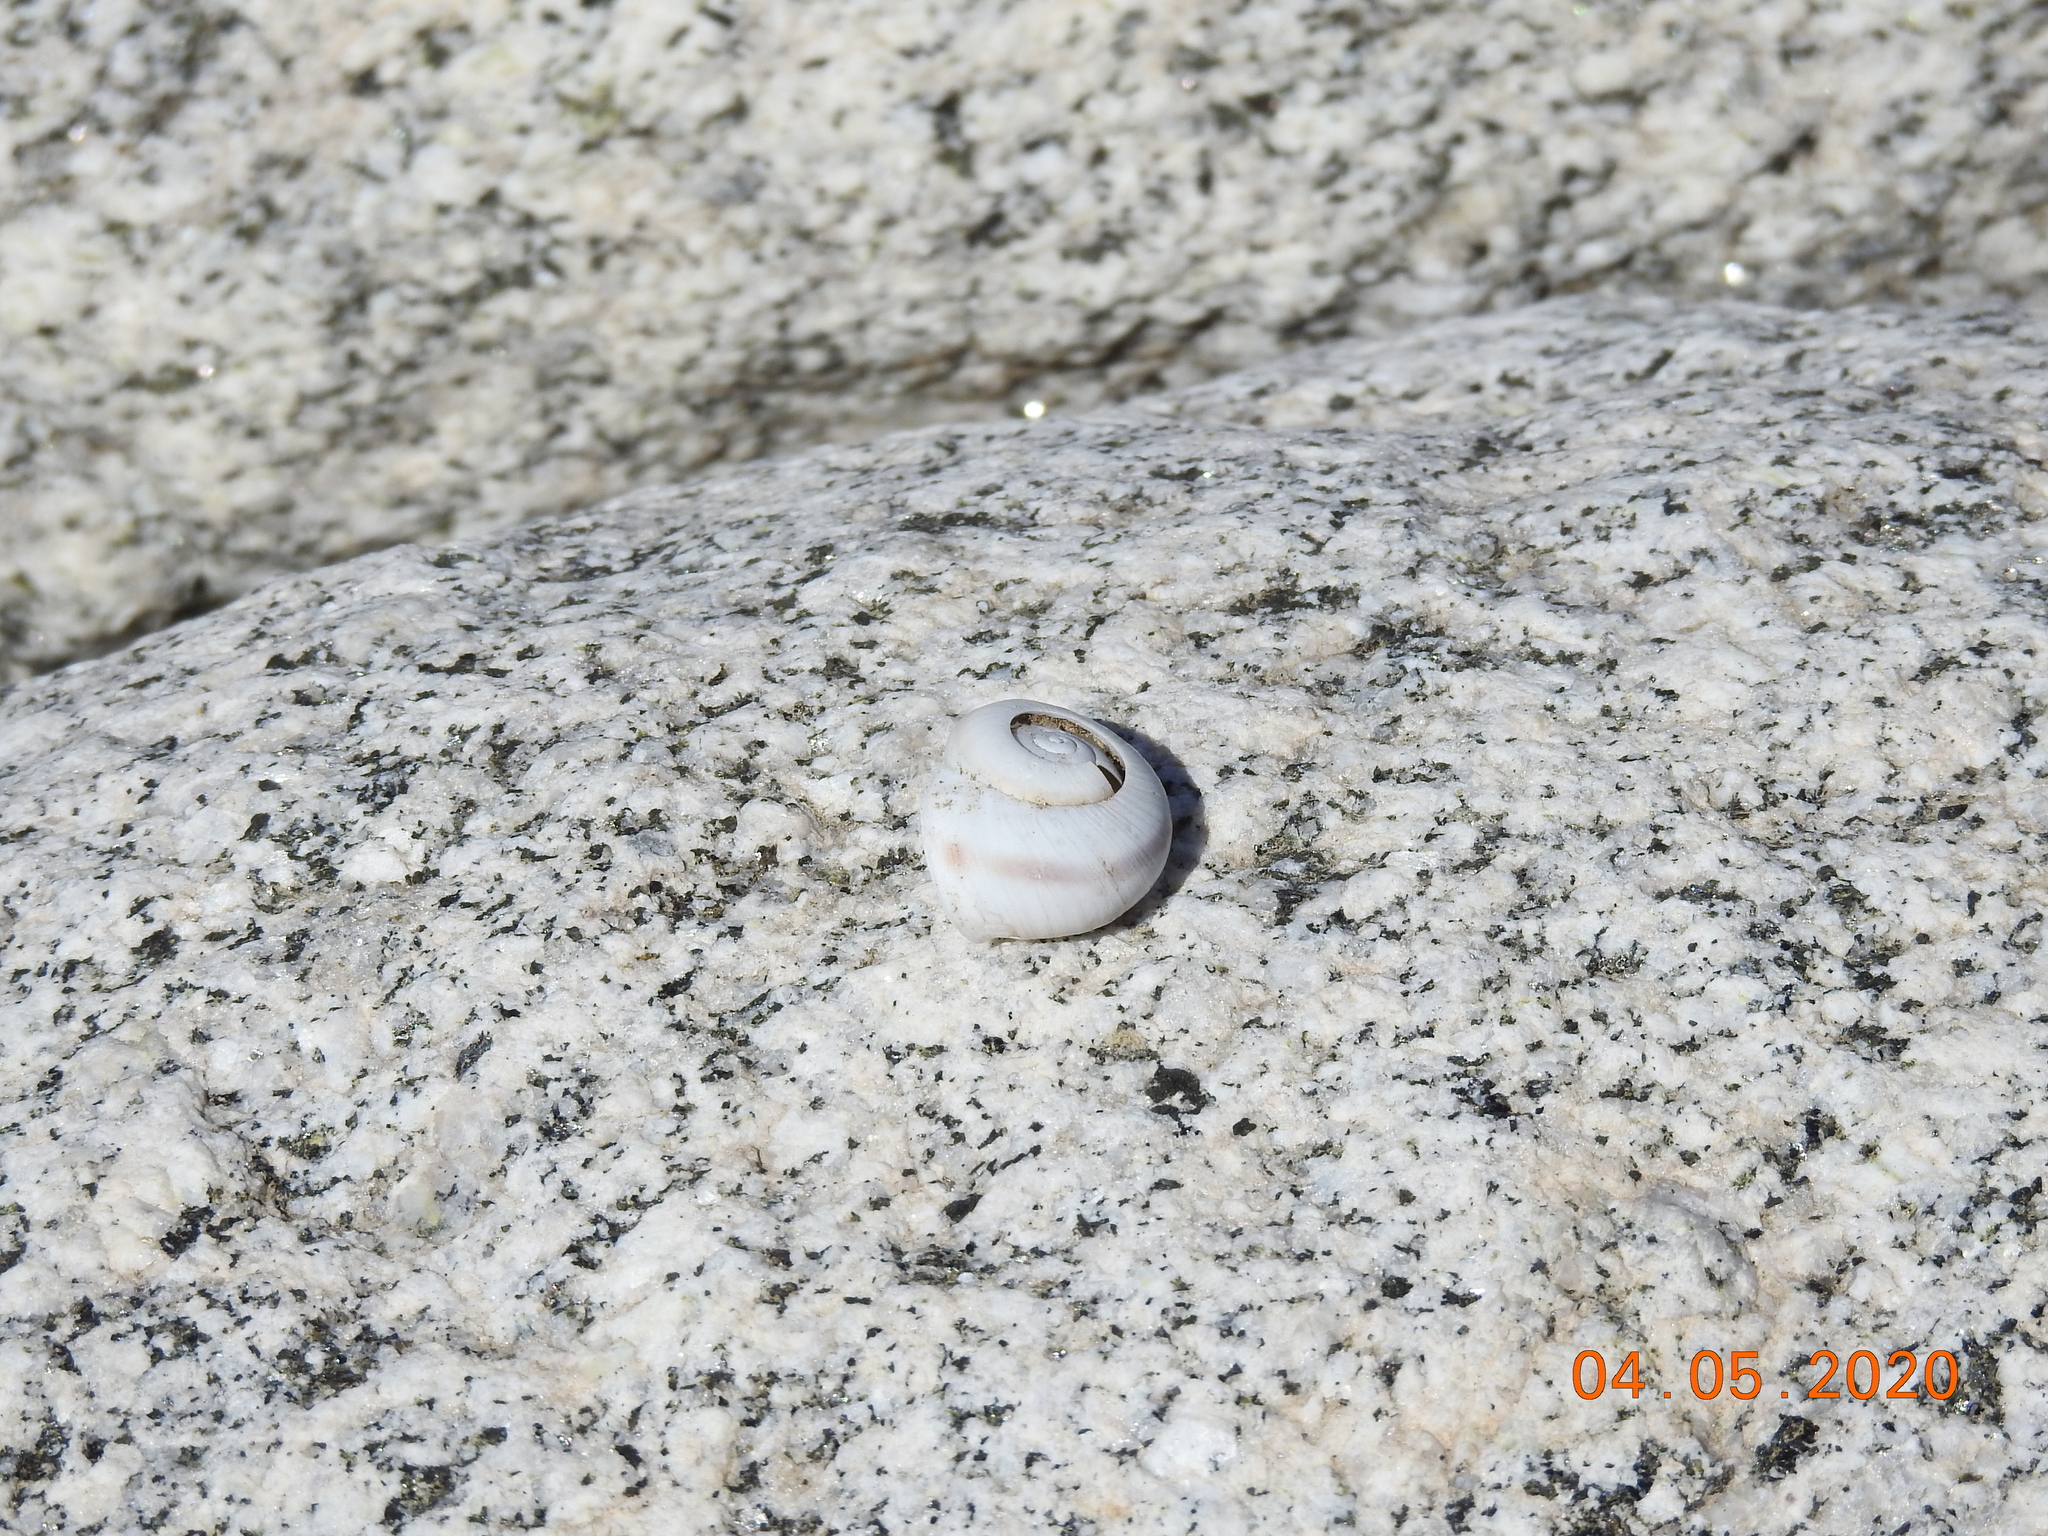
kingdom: Animalia
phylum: Mollusca
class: Gastropoda
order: Stylommatophora
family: Xanthonychidae
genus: Cahuillus
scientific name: Cahuillus indioensis
